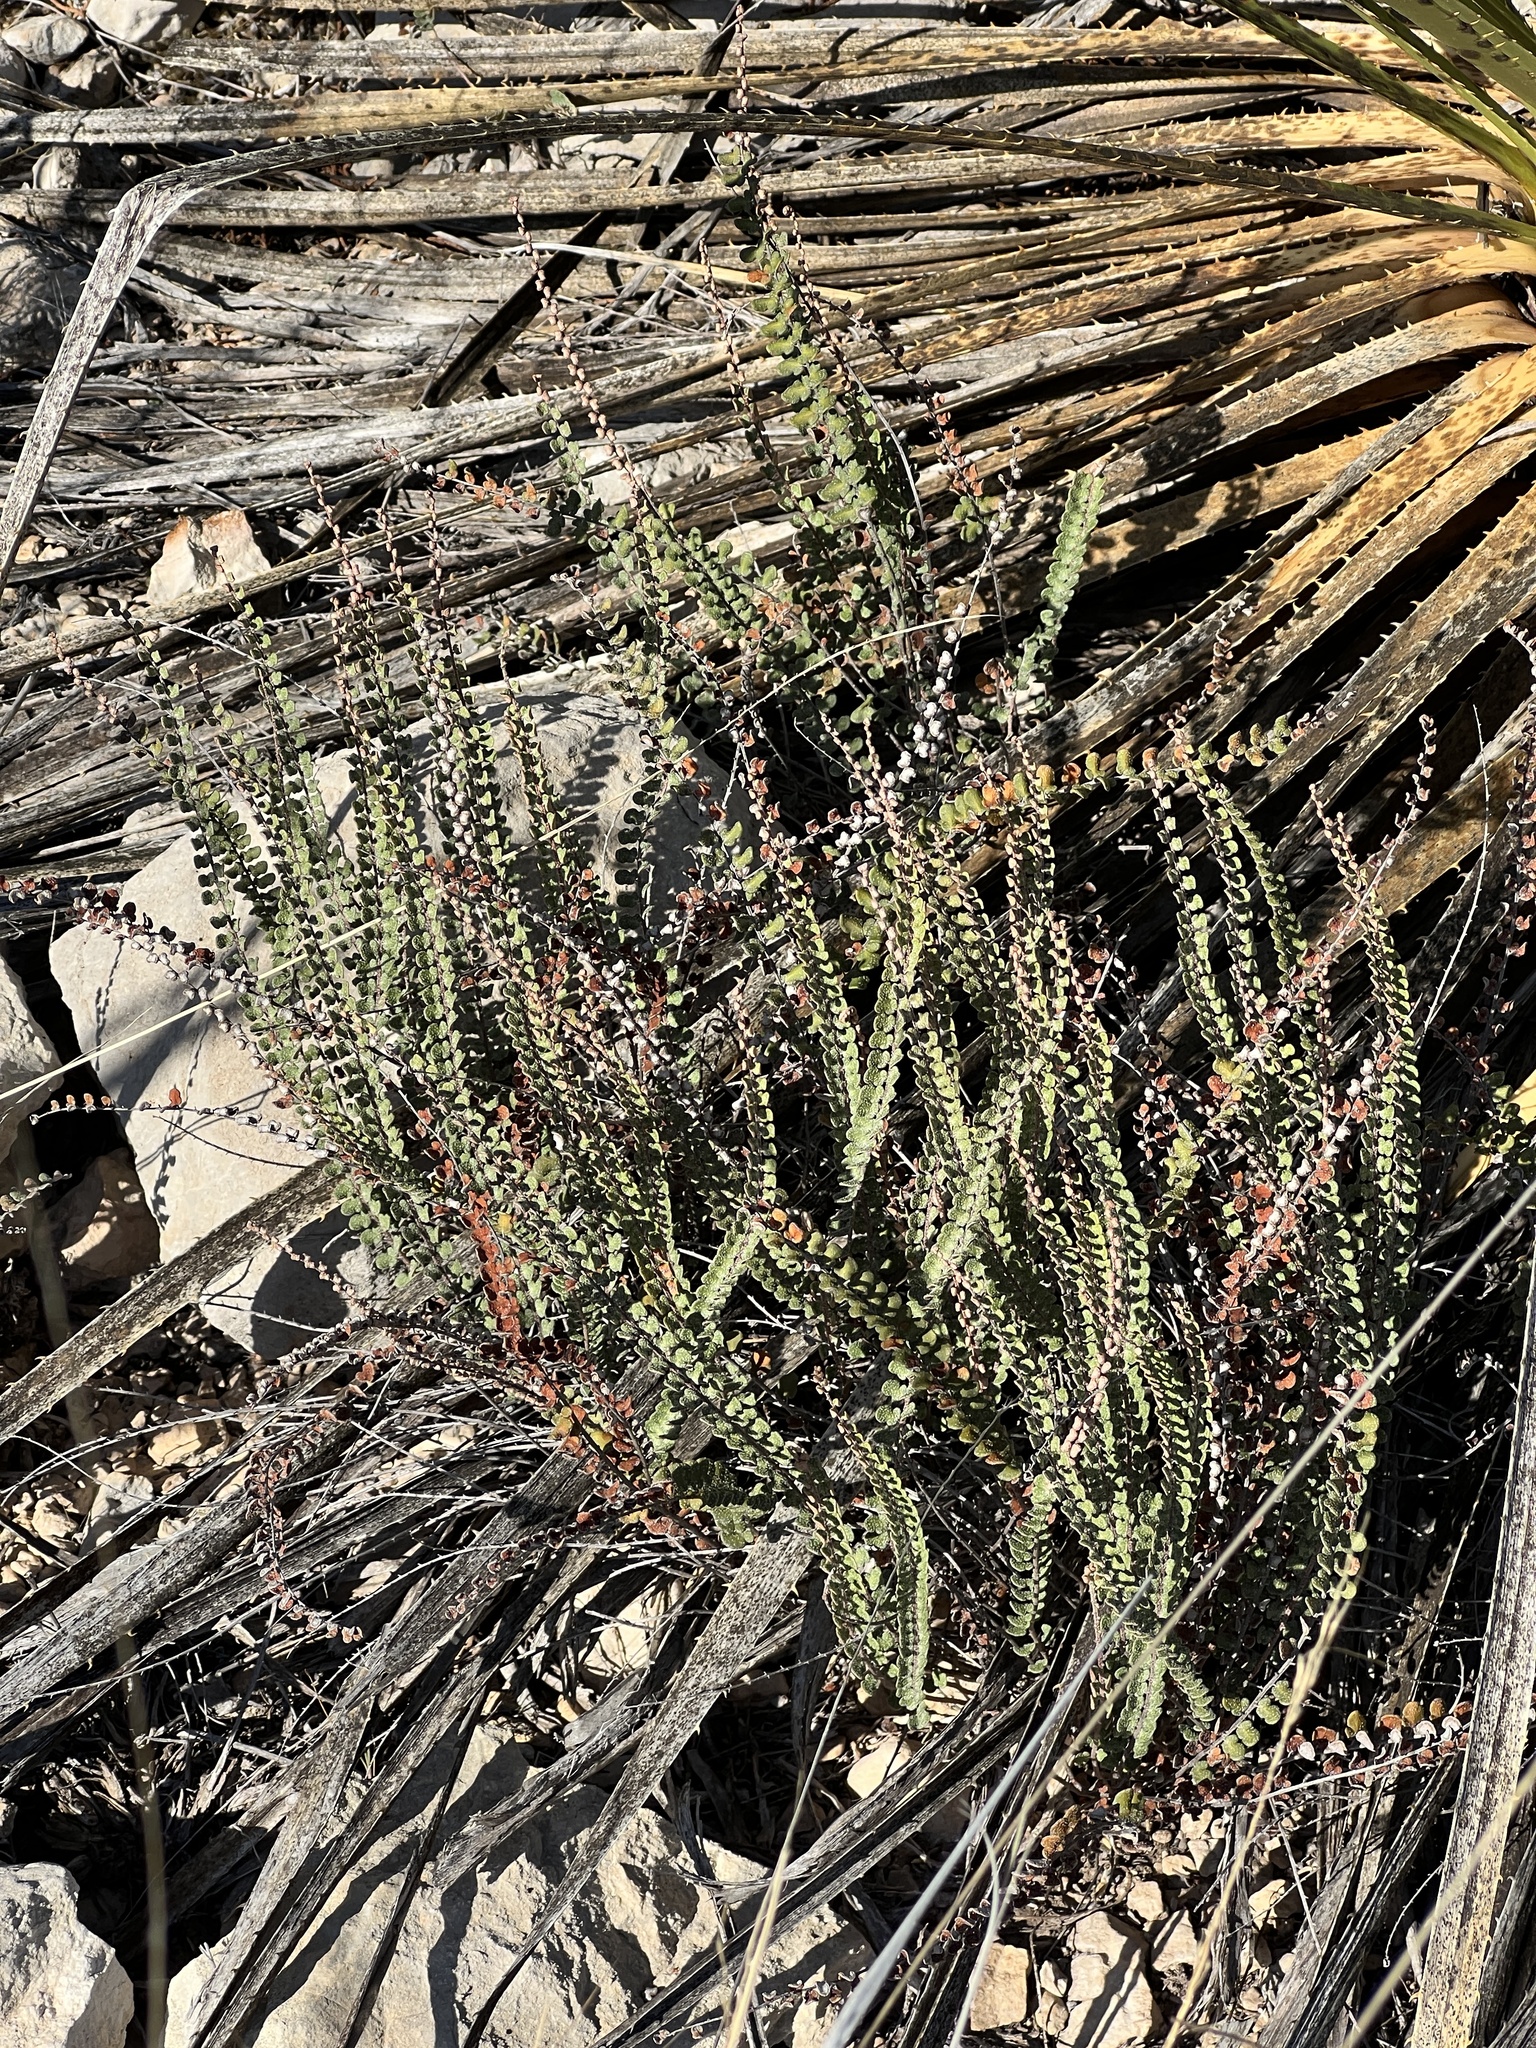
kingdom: Plantae
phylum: Tracheophyta
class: Polypodiopsida
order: Polypodiales
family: Pteridaceae
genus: Astrolepis
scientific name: Astrolepis cochisensis
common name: Scaly cloak fern
